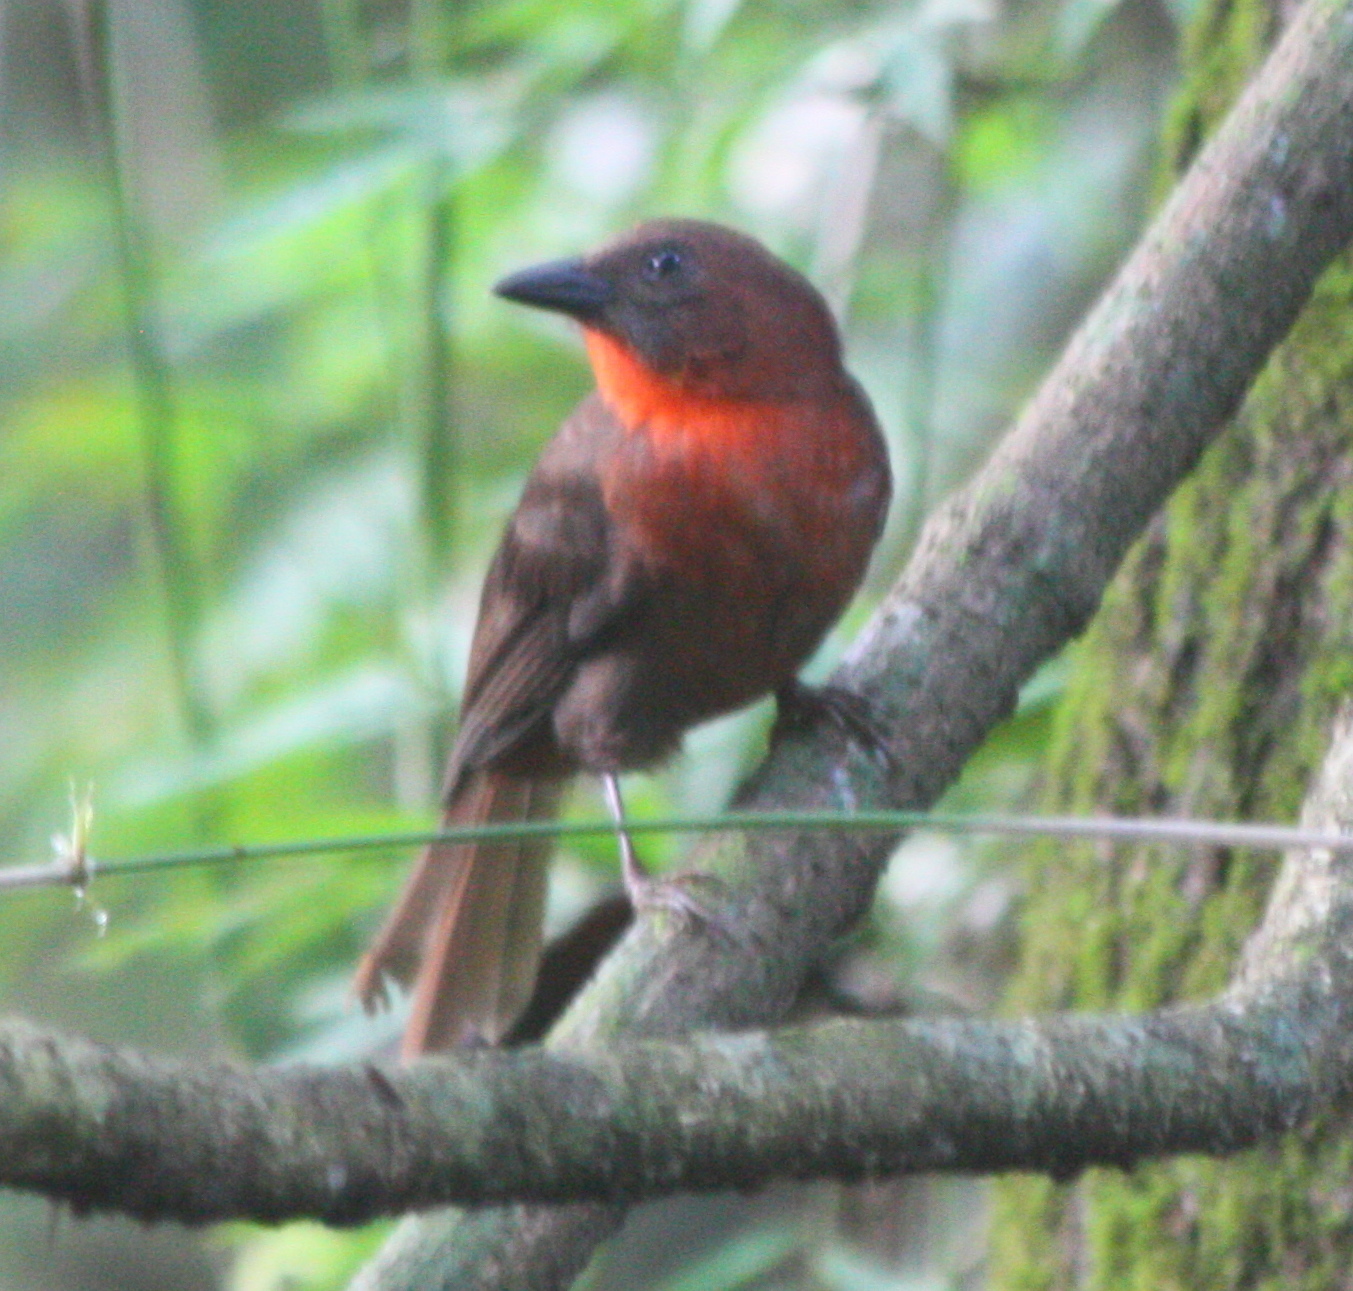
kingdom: Animalia
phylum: Chordata
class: Aves
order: Passeriformes
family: Cardinalidae
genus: Habia
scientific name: Habia fuscicauda
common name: Red-throated ant-tanager
